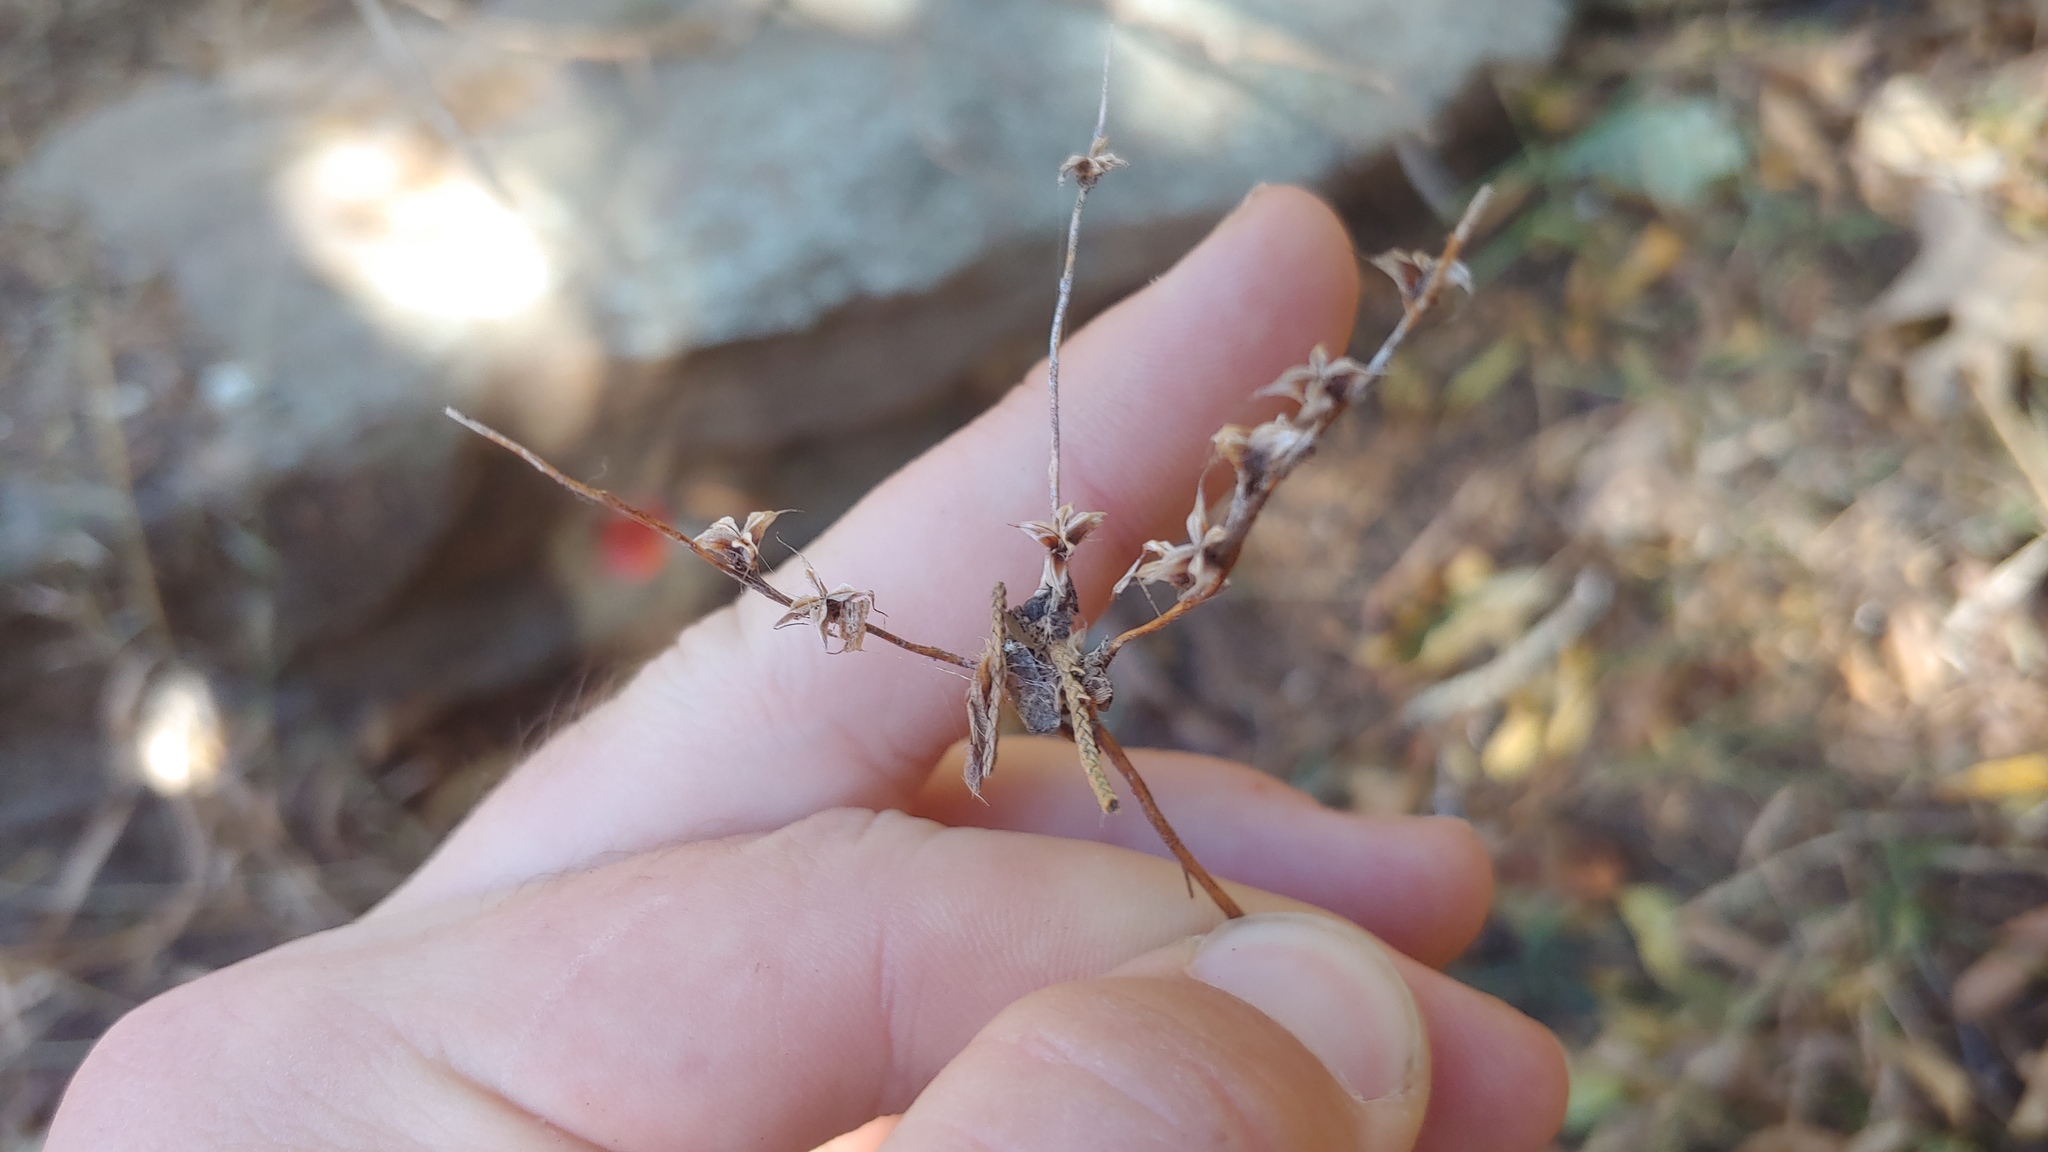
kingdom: Plantae
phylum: Tracheophyta
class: Magnoliopsida
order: Saxifragales
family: Crassulaceae
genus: Sedum
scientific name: Sedum pulchellum
